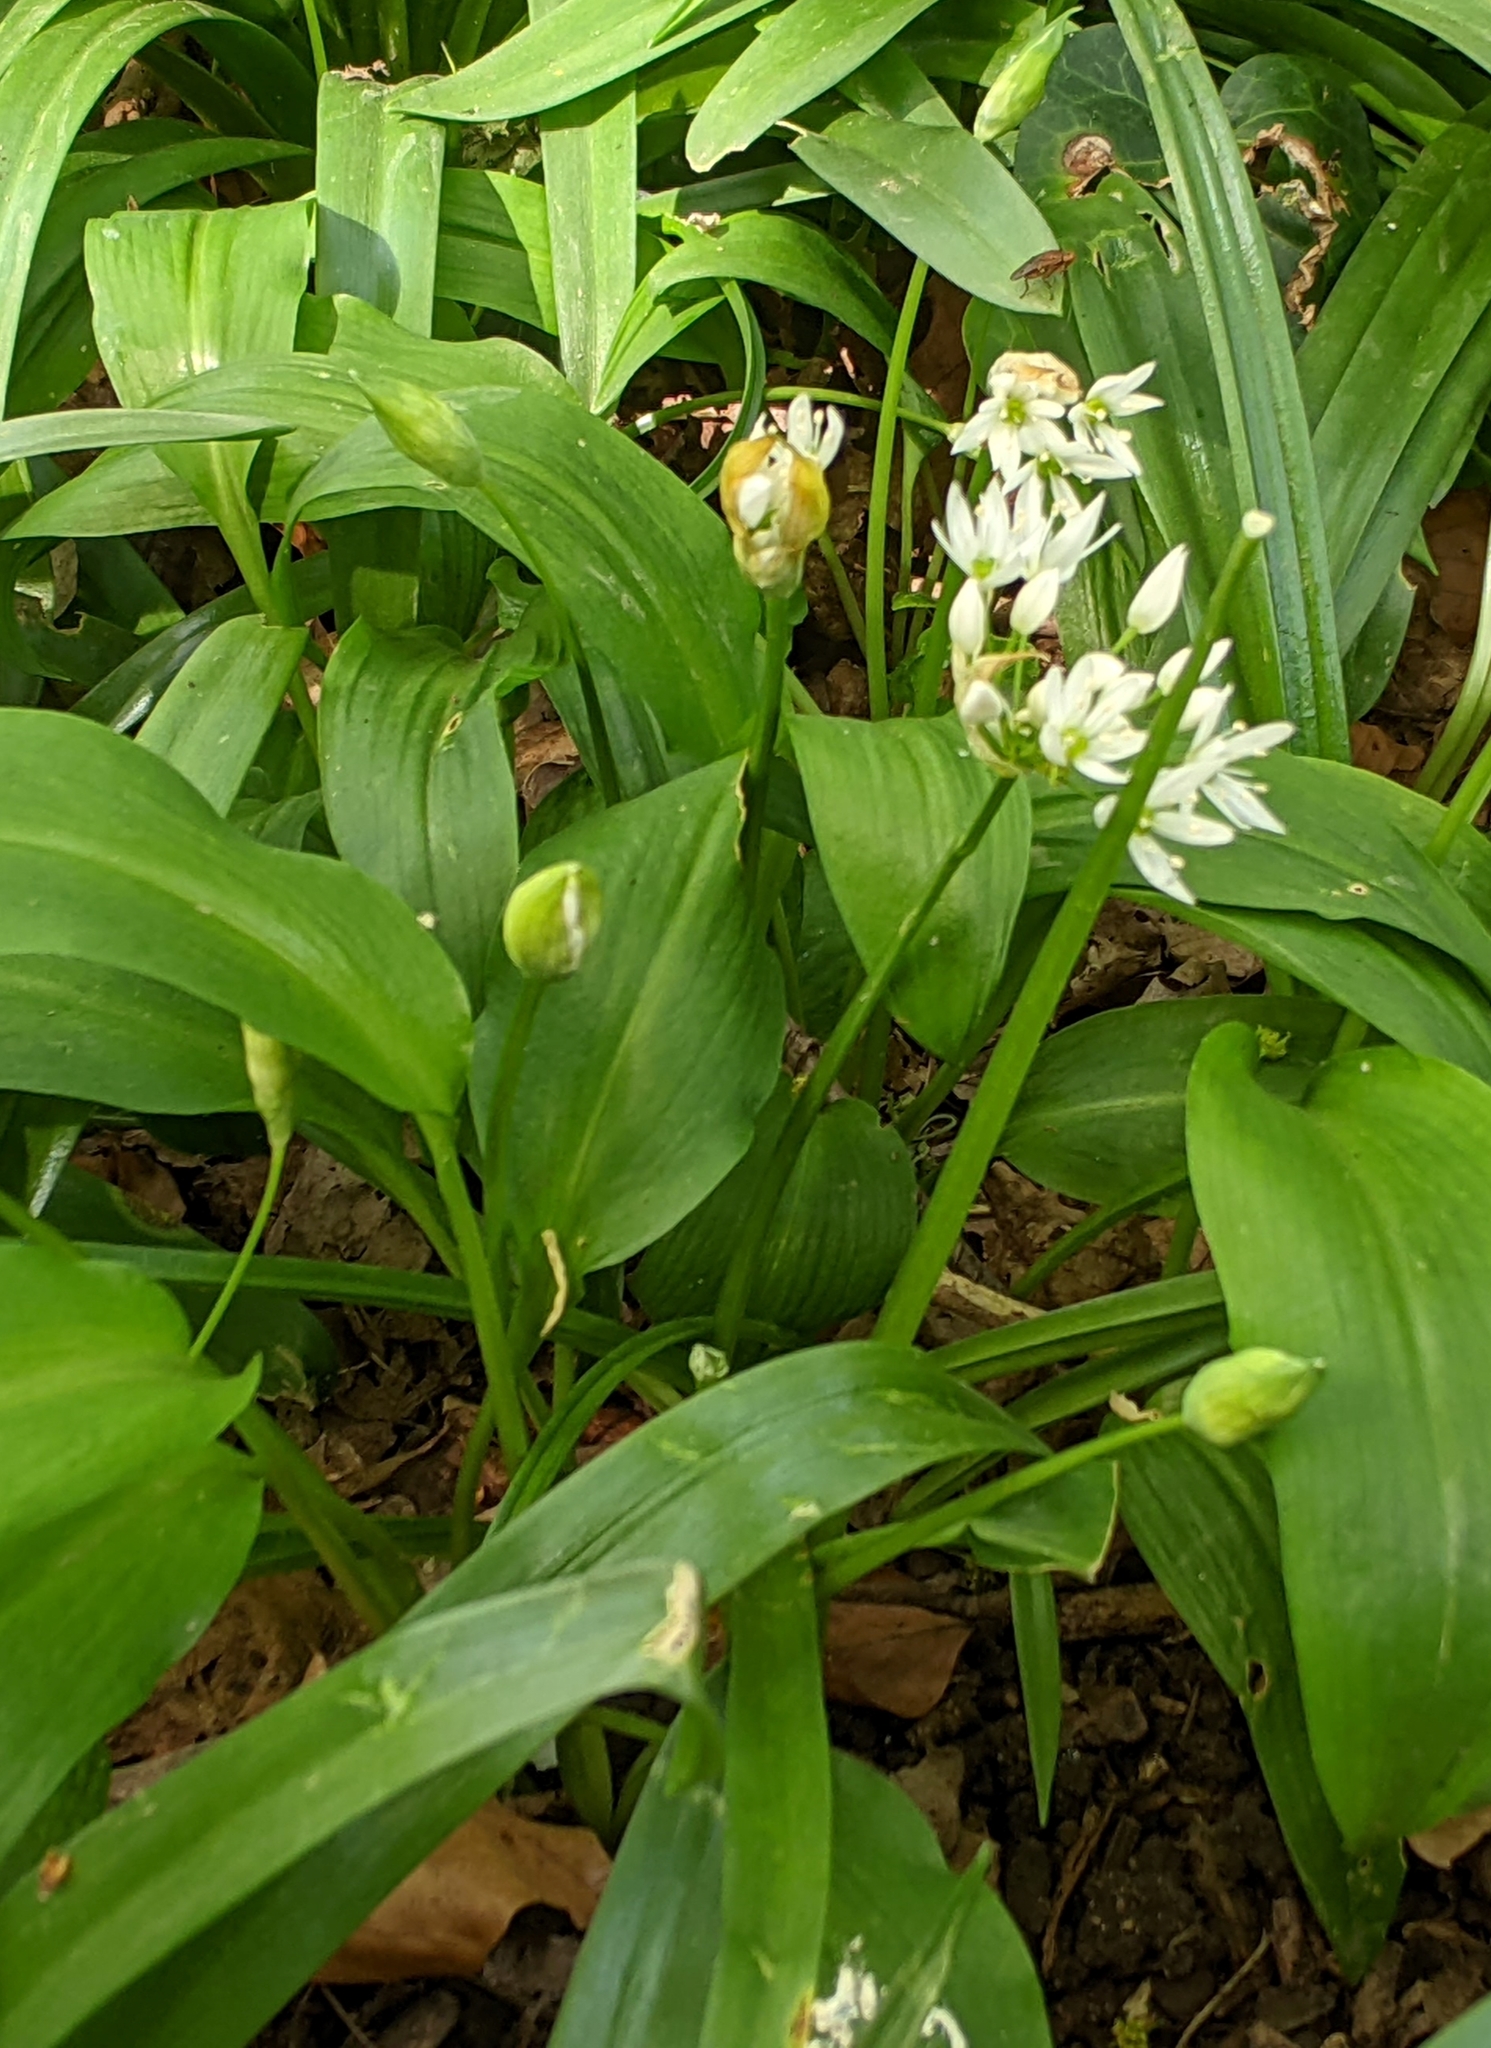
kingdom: Plantae
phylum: Tracheophyta
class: Liliopsida
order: Asparagales
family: Amaryllidaceae
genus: Allium
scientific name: Allium ursinum
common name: Ramsons
